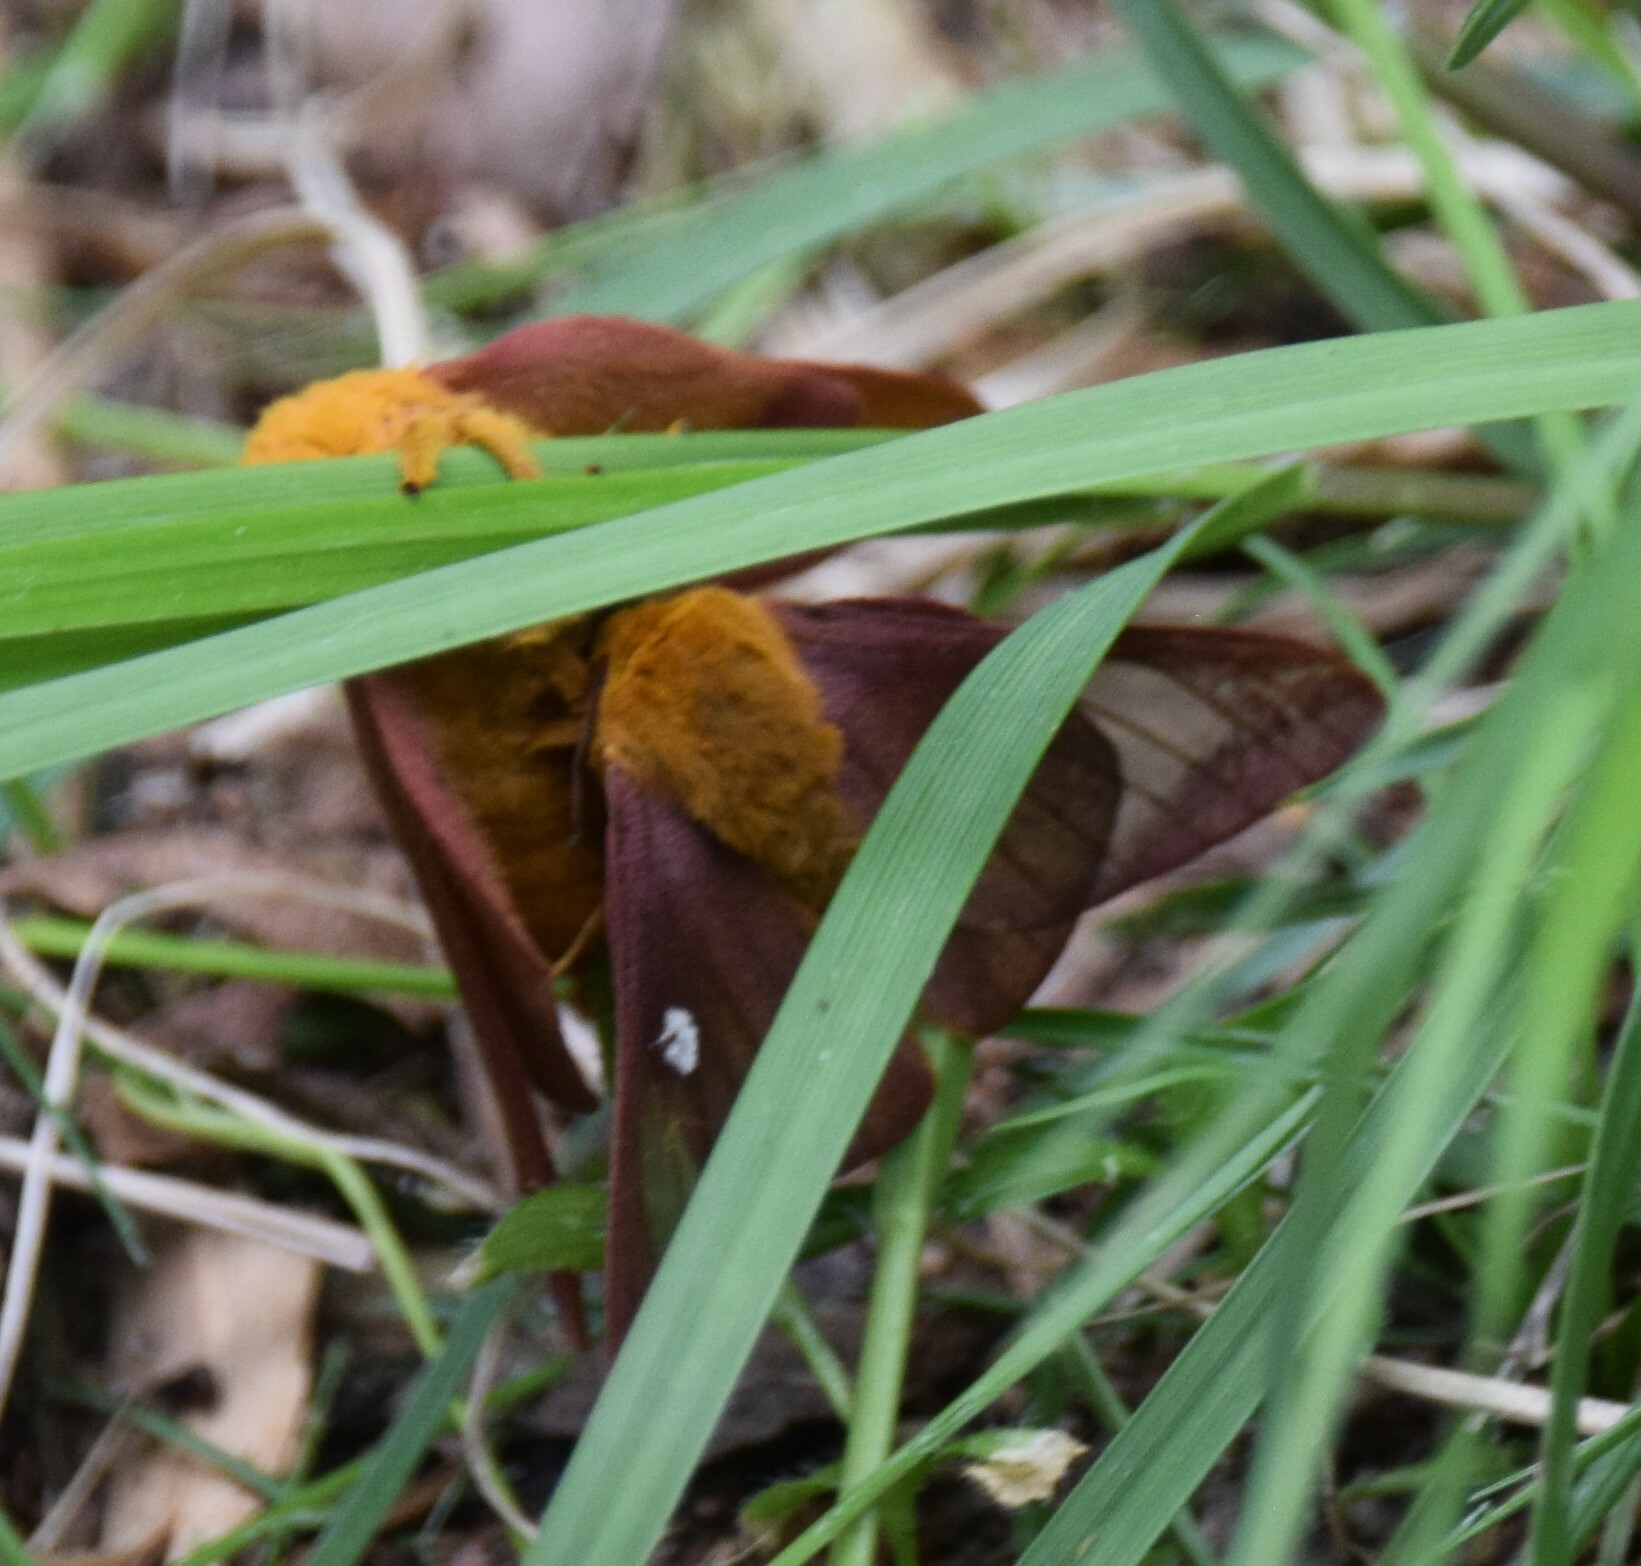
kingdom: Animalia
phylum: Arthropoda
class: Insecta
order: Lepidoptera
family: Saturniidae
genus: Anisota
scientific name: Anisota virginiensis
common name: Pink striped oakworm moth
